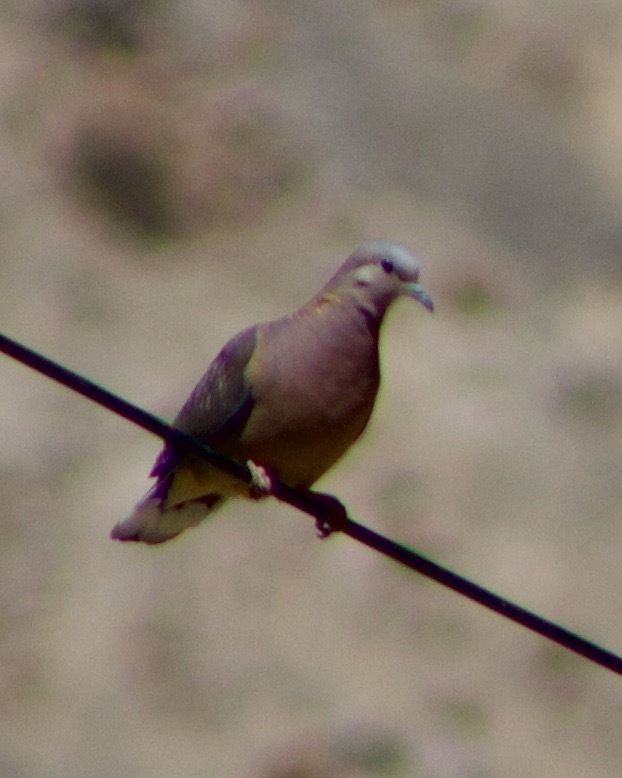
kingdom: Animalia
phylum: Chordata
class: Aves
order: Columbiformes
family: Columbidae
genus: Zenaida
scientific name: Zenaida auriculata
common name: Eared dove
